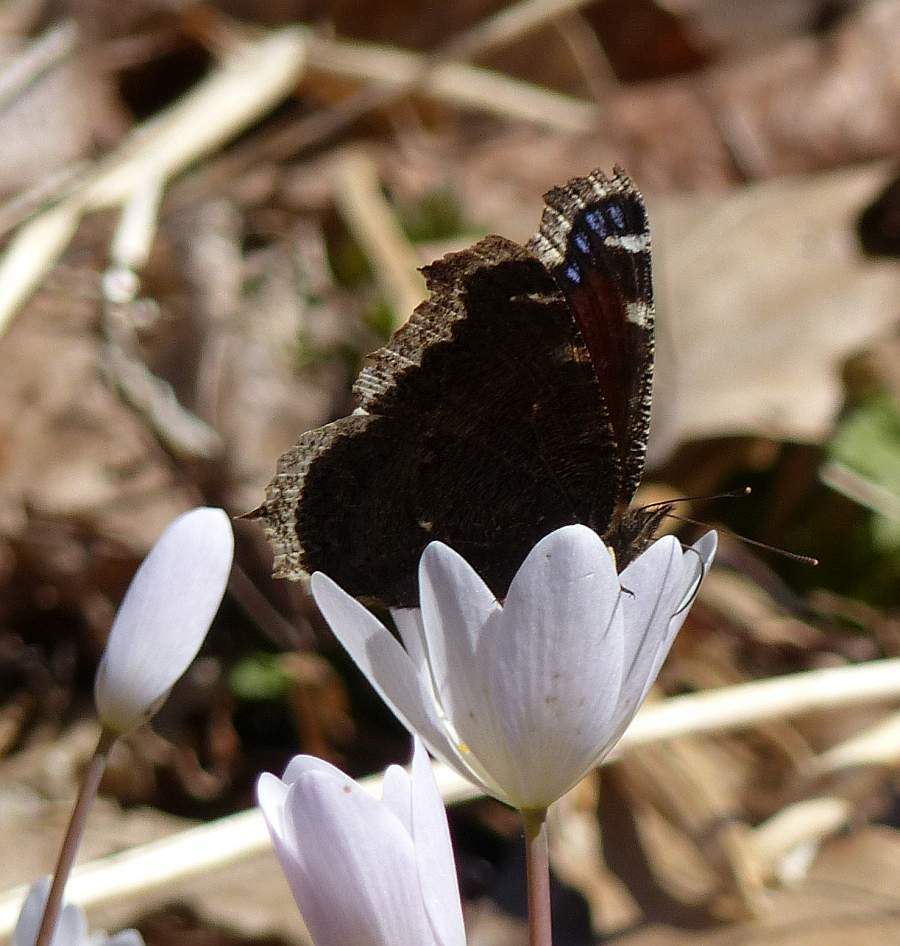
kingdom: Animalia
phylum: Arthropoda
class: Insecta
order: Lepidoptera
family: Nymphalidae
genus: Nymphalis
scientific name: Nymphalis antiopa
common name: Camberwell beauty
